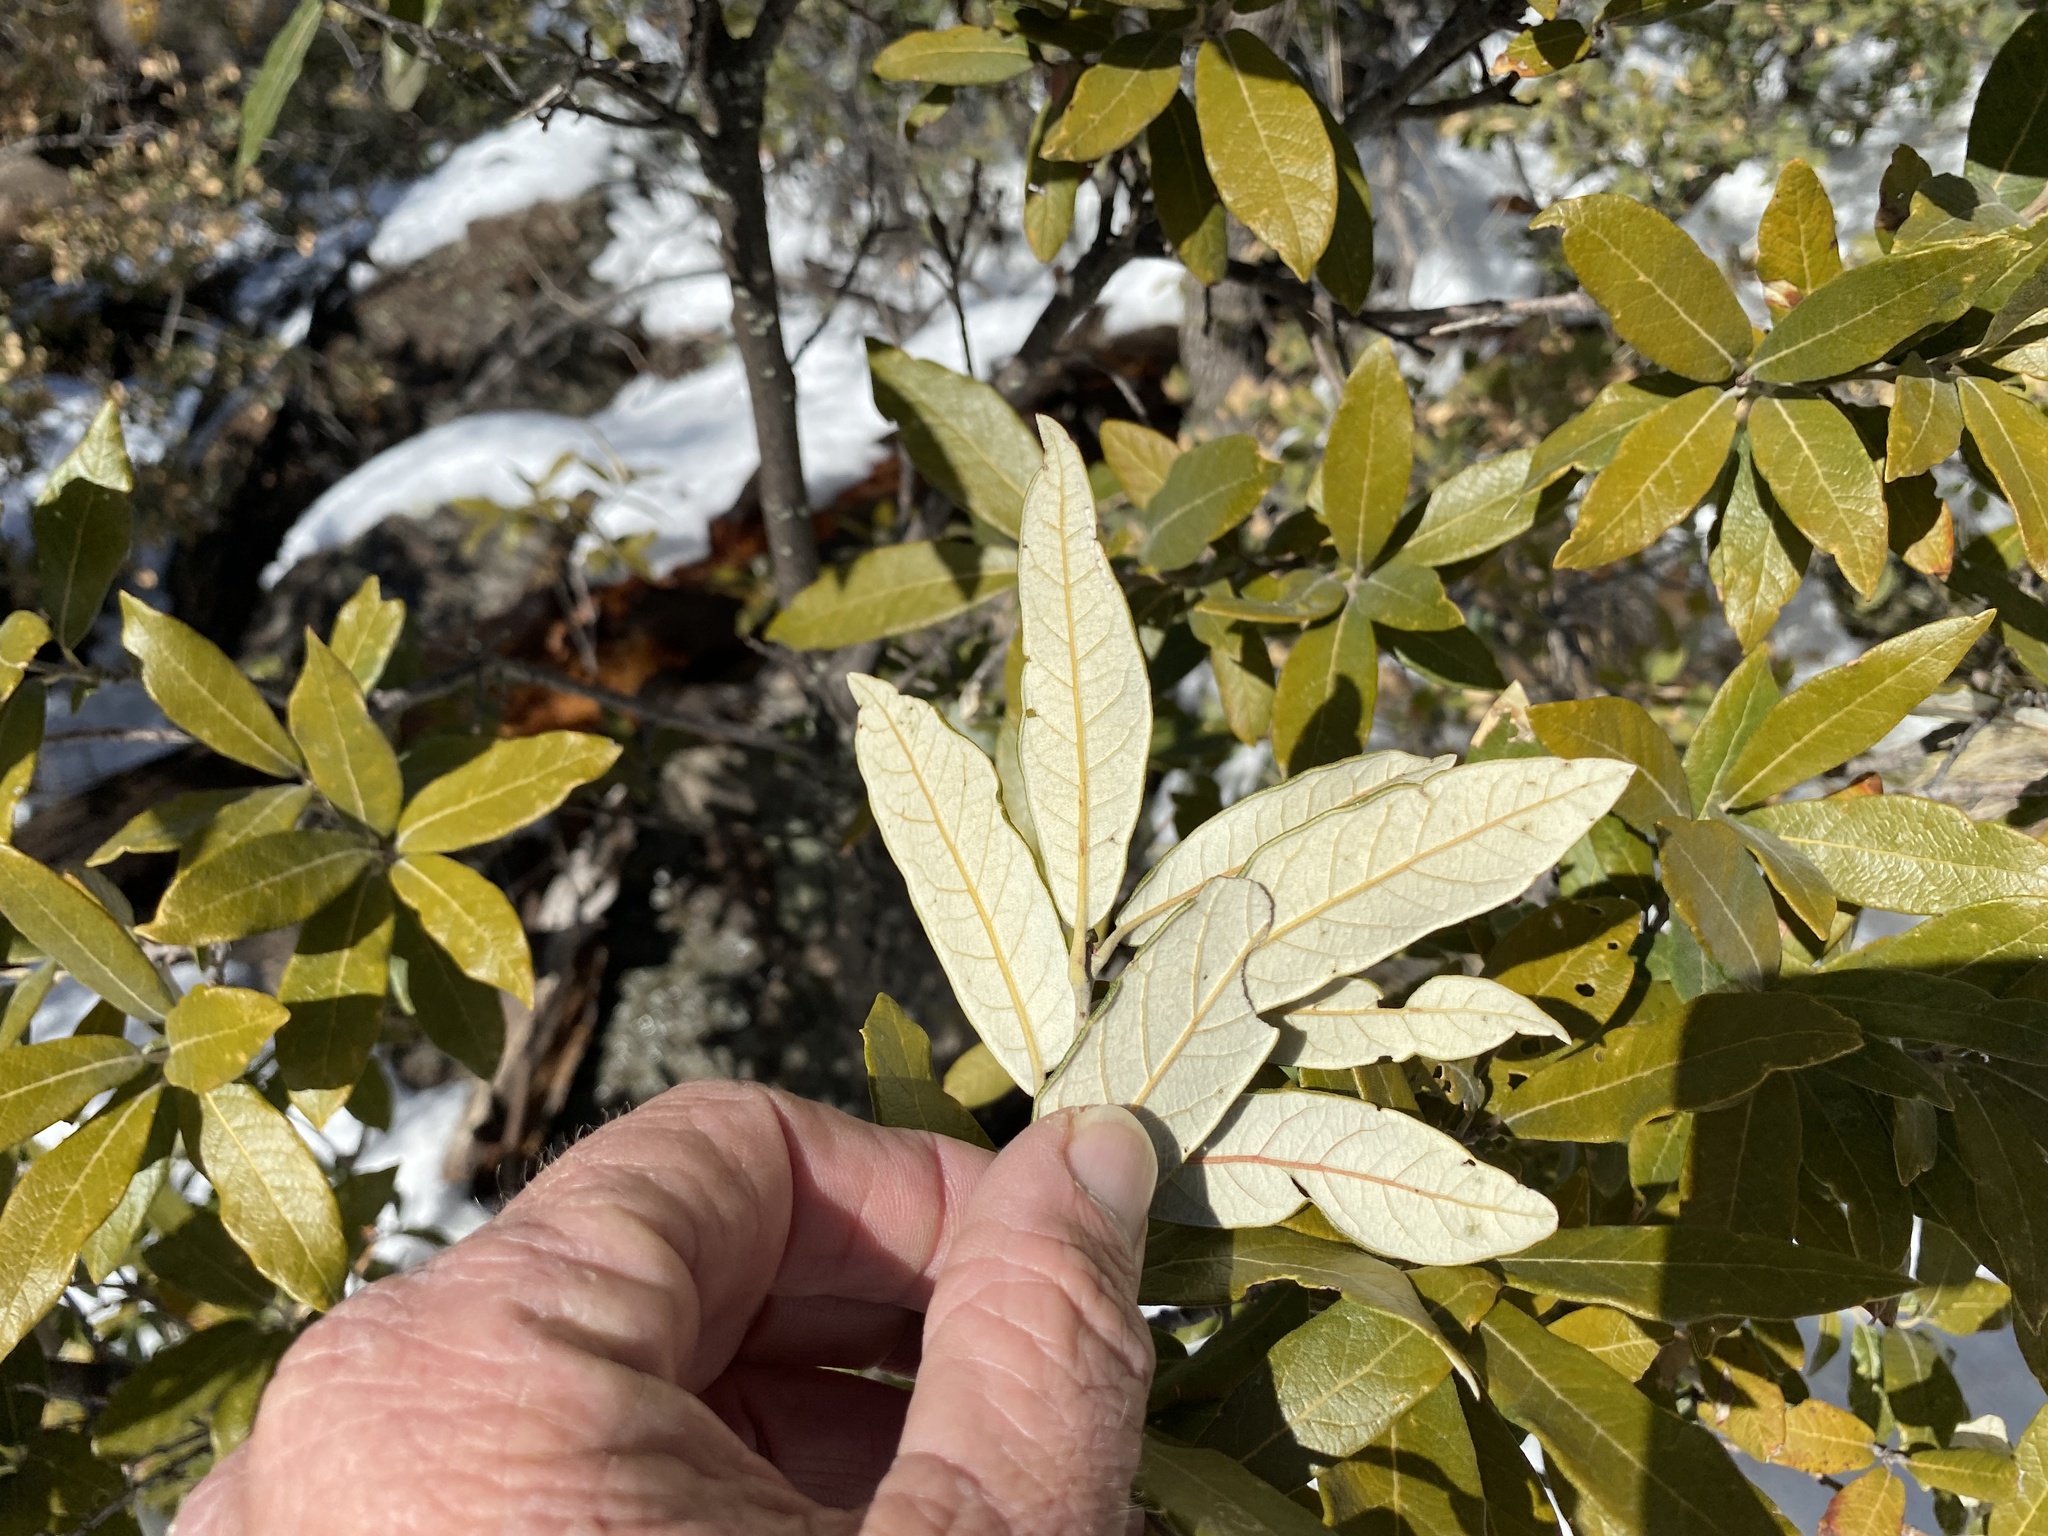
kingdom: Plantae
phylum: Tracheophyta
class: Magnoliopsida
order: Fagales
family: Fagaceae
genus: Quercus
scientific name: Quercus hypoleucoides
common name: Silverleaf oak
